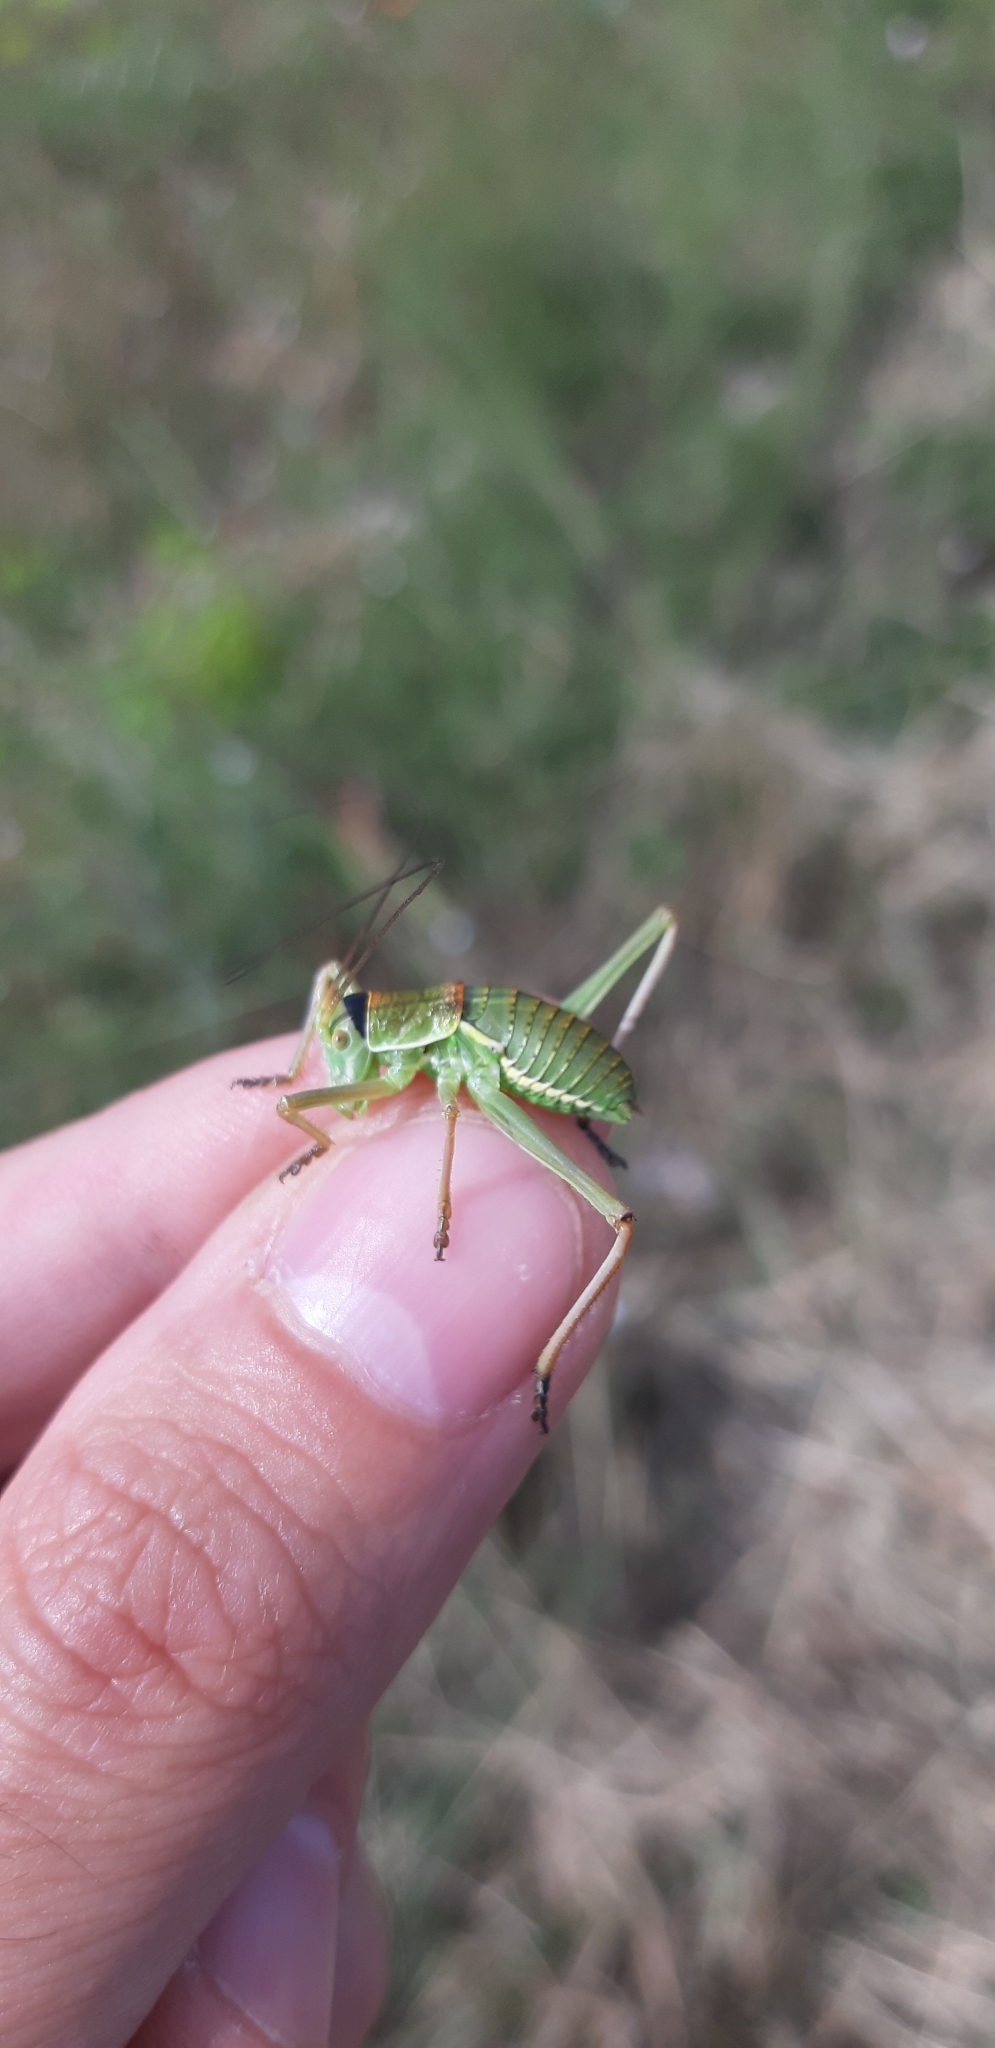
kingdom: Animalia
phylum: Arthropoda
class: Insecta
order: Orthoptera
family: Tettigoniidae
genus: Ephippiger
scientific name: Ephippiger apulus
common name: Apulian saddle bush-cricket
